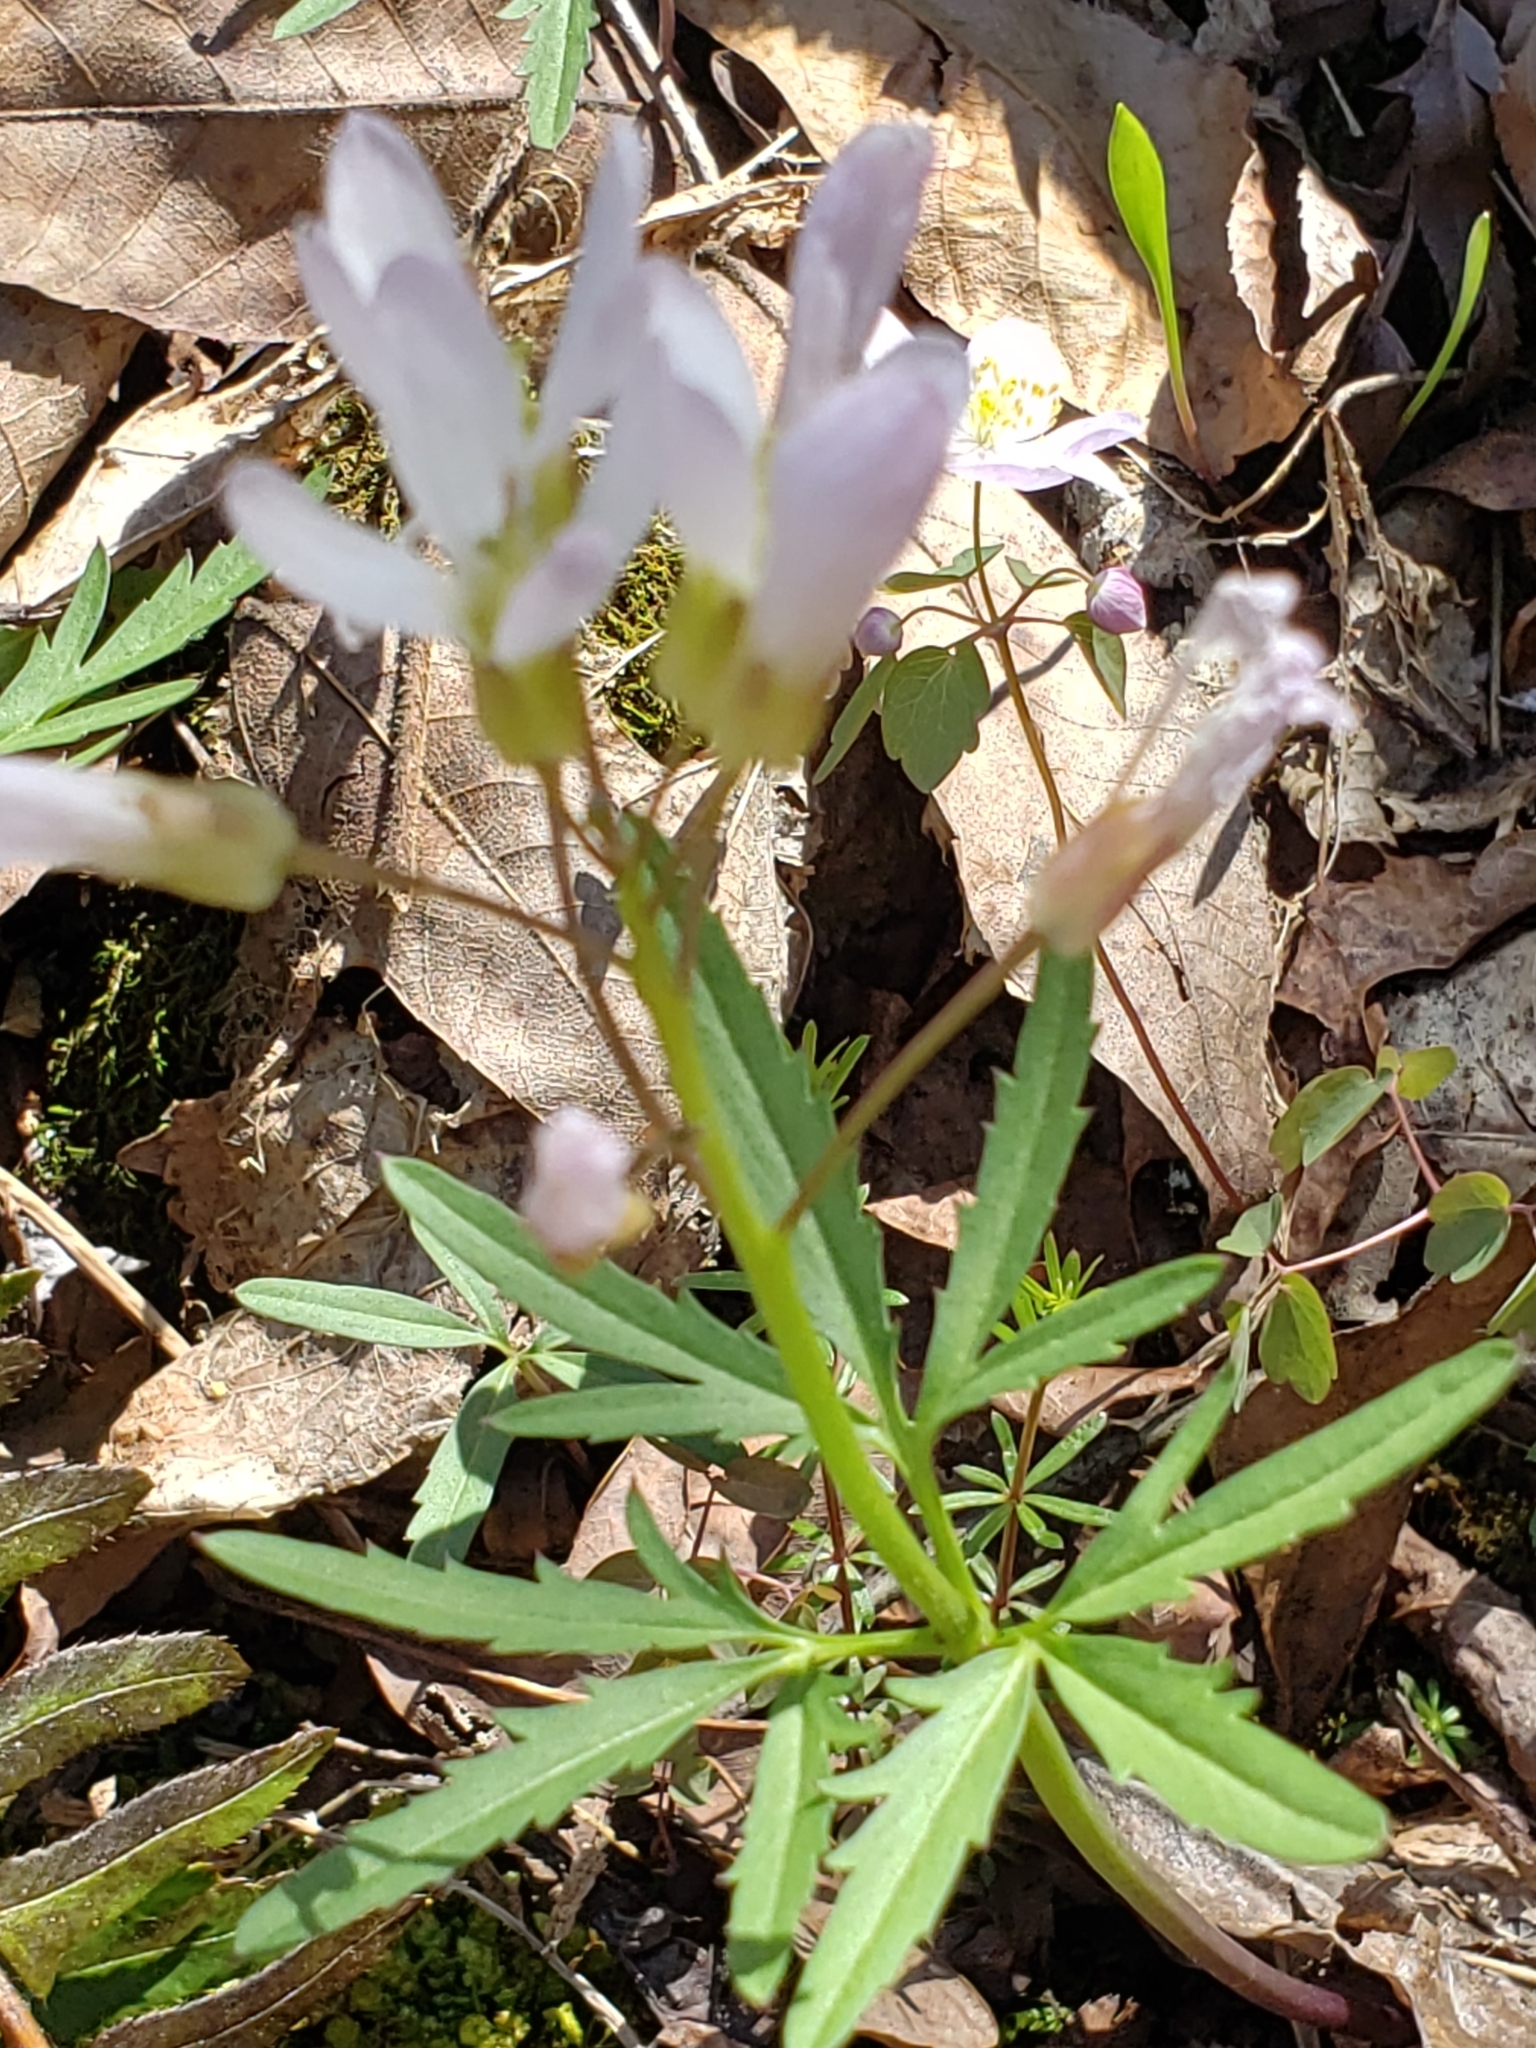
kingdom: Plantae
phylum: Tracheophyta
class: Magnoliopsida
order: Brassicales
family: Brassicaceae
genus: Cardamine
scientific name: Cardamine concatenata
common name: Cut-leaf toothcup
